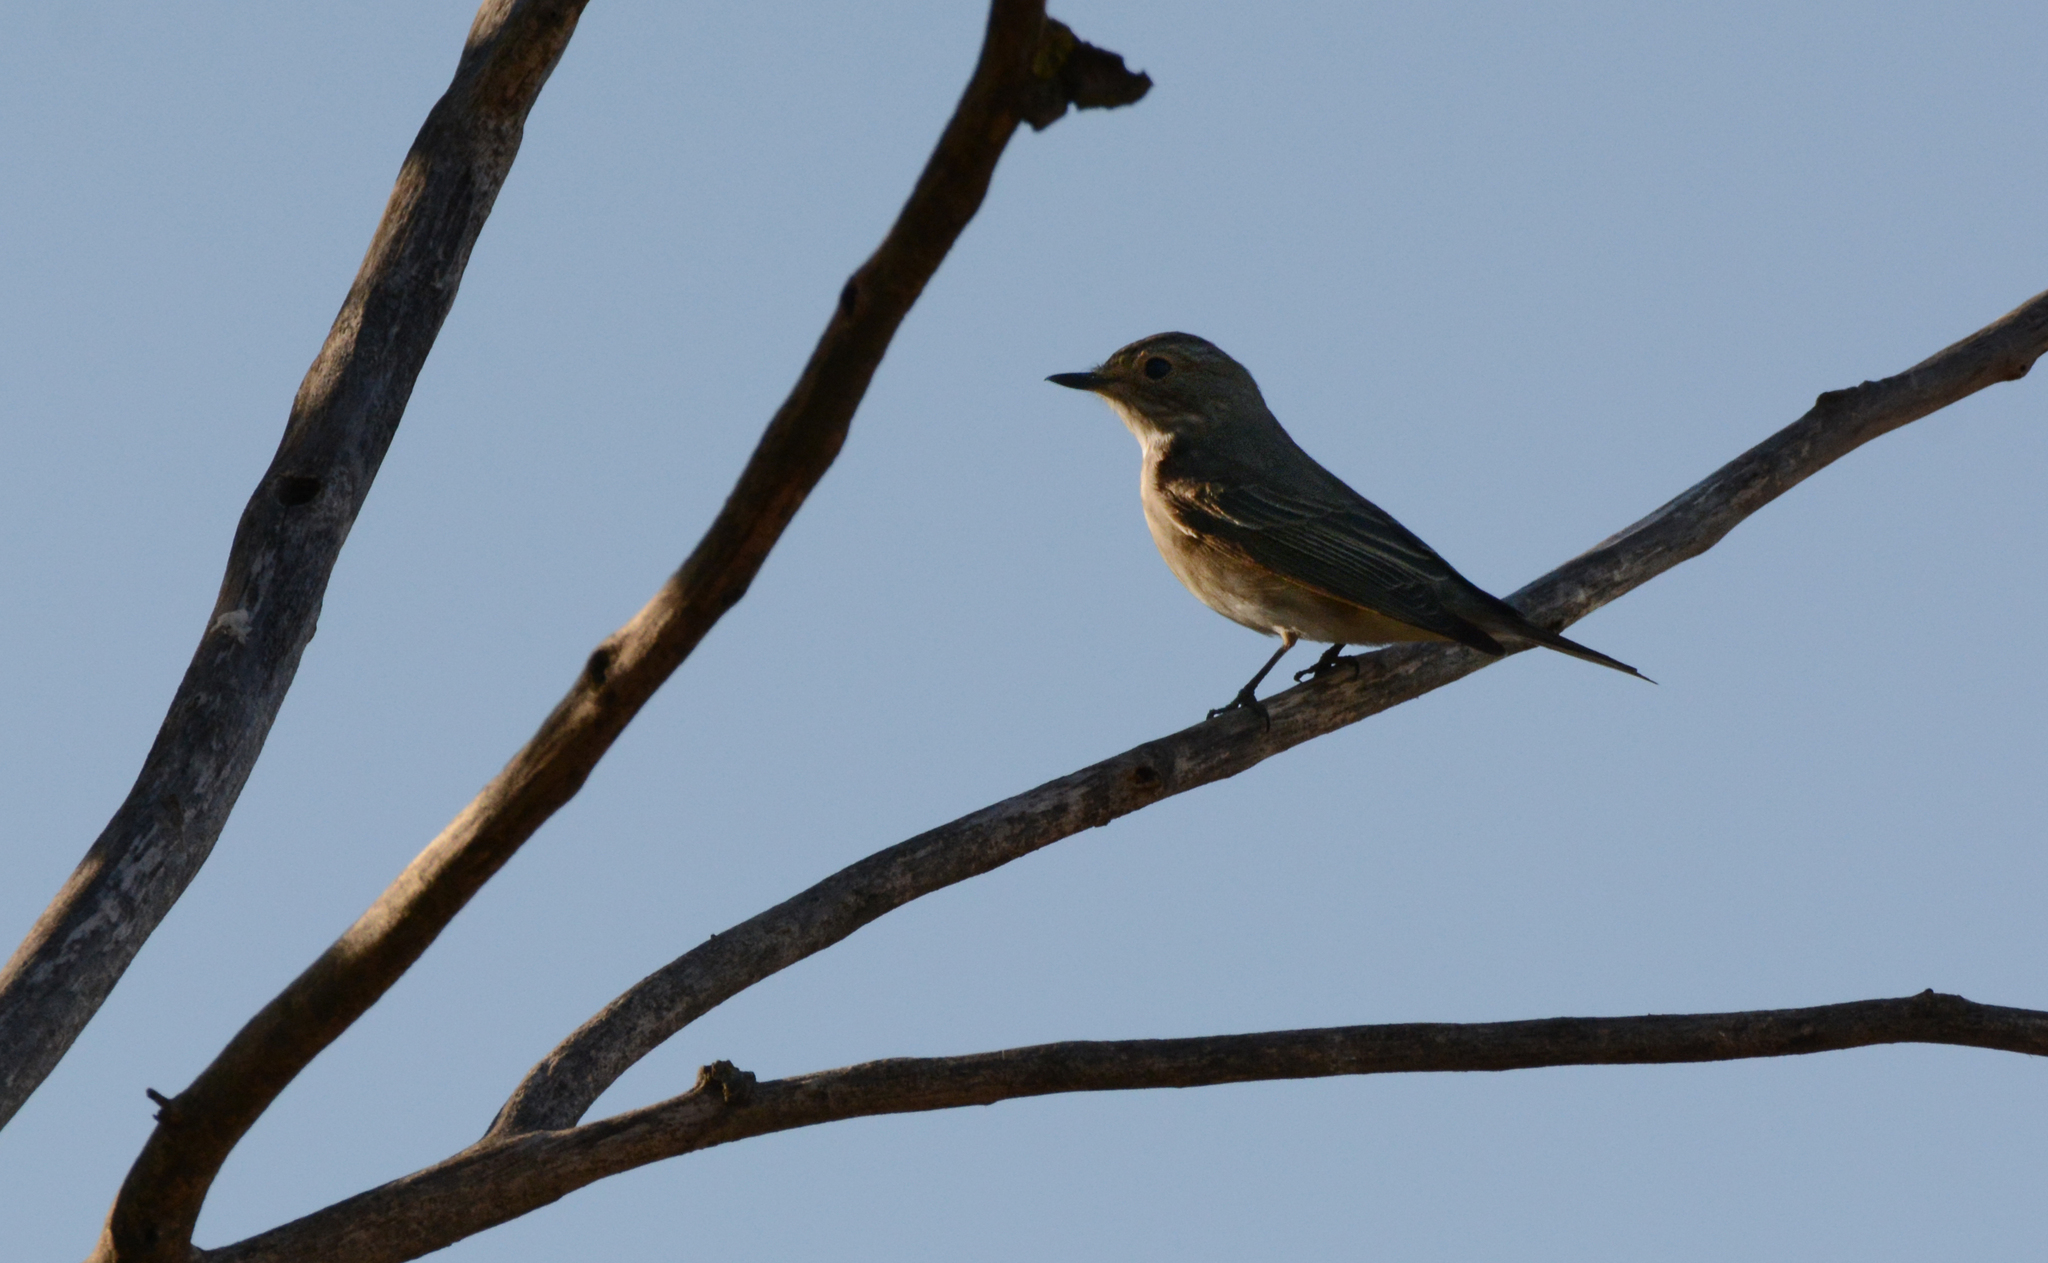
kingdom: Animalia
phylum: Chordata
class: Aves
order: Passeriformes
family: Muscicapidae
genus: Muscicapa
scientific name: Muscicapa striata
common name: Spotted flycatcher
